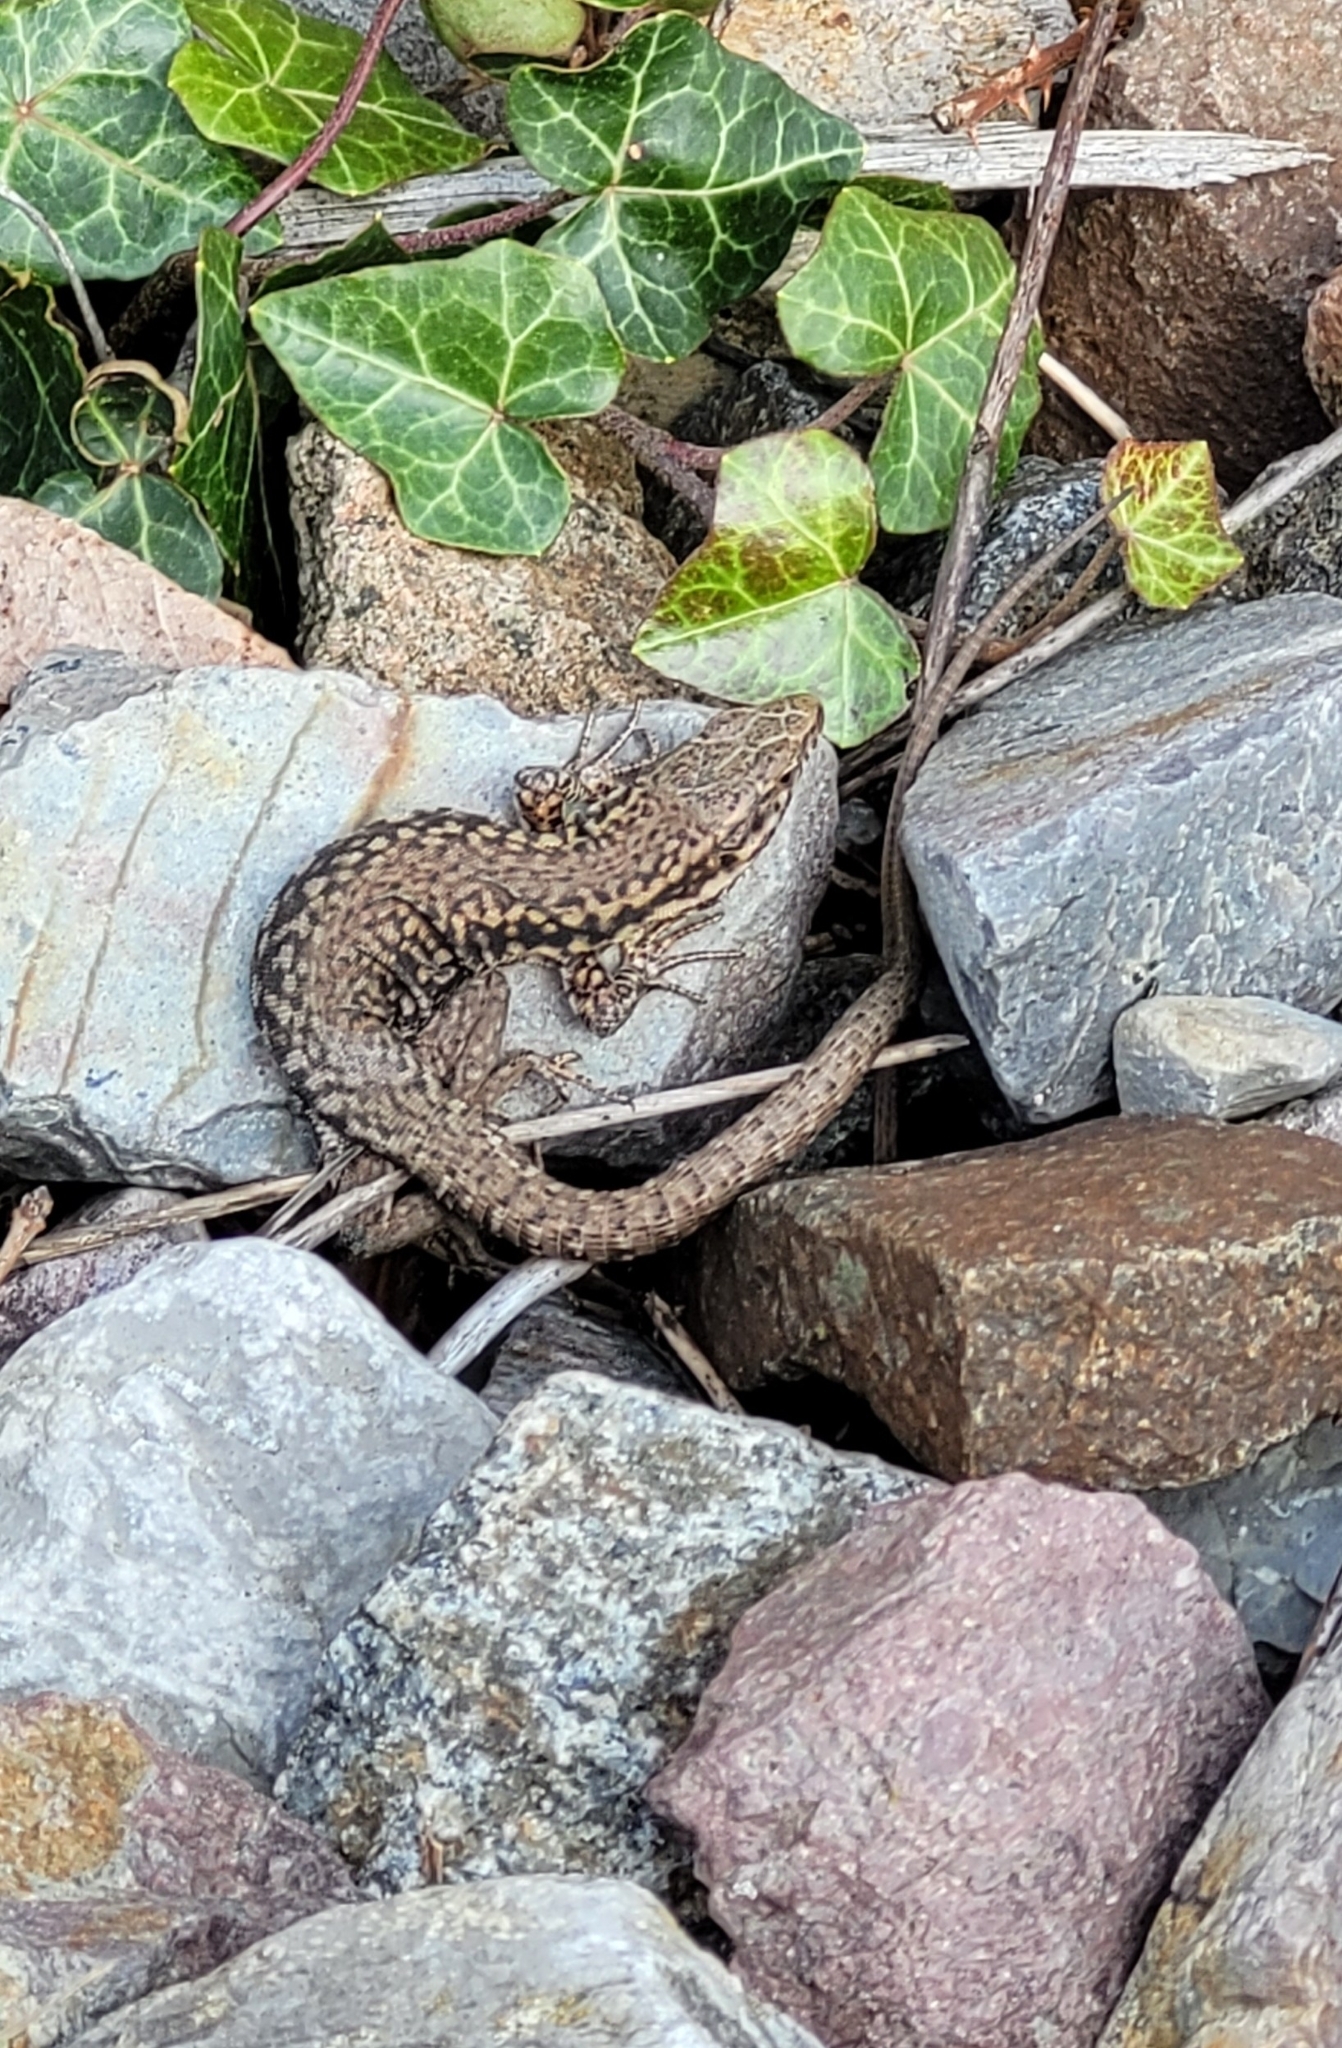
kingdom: Animalia
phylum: Chordata
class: Squamata
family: Lacertidae
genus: Podarcis
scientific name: Podarcis muralis
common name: Common wall lizard
